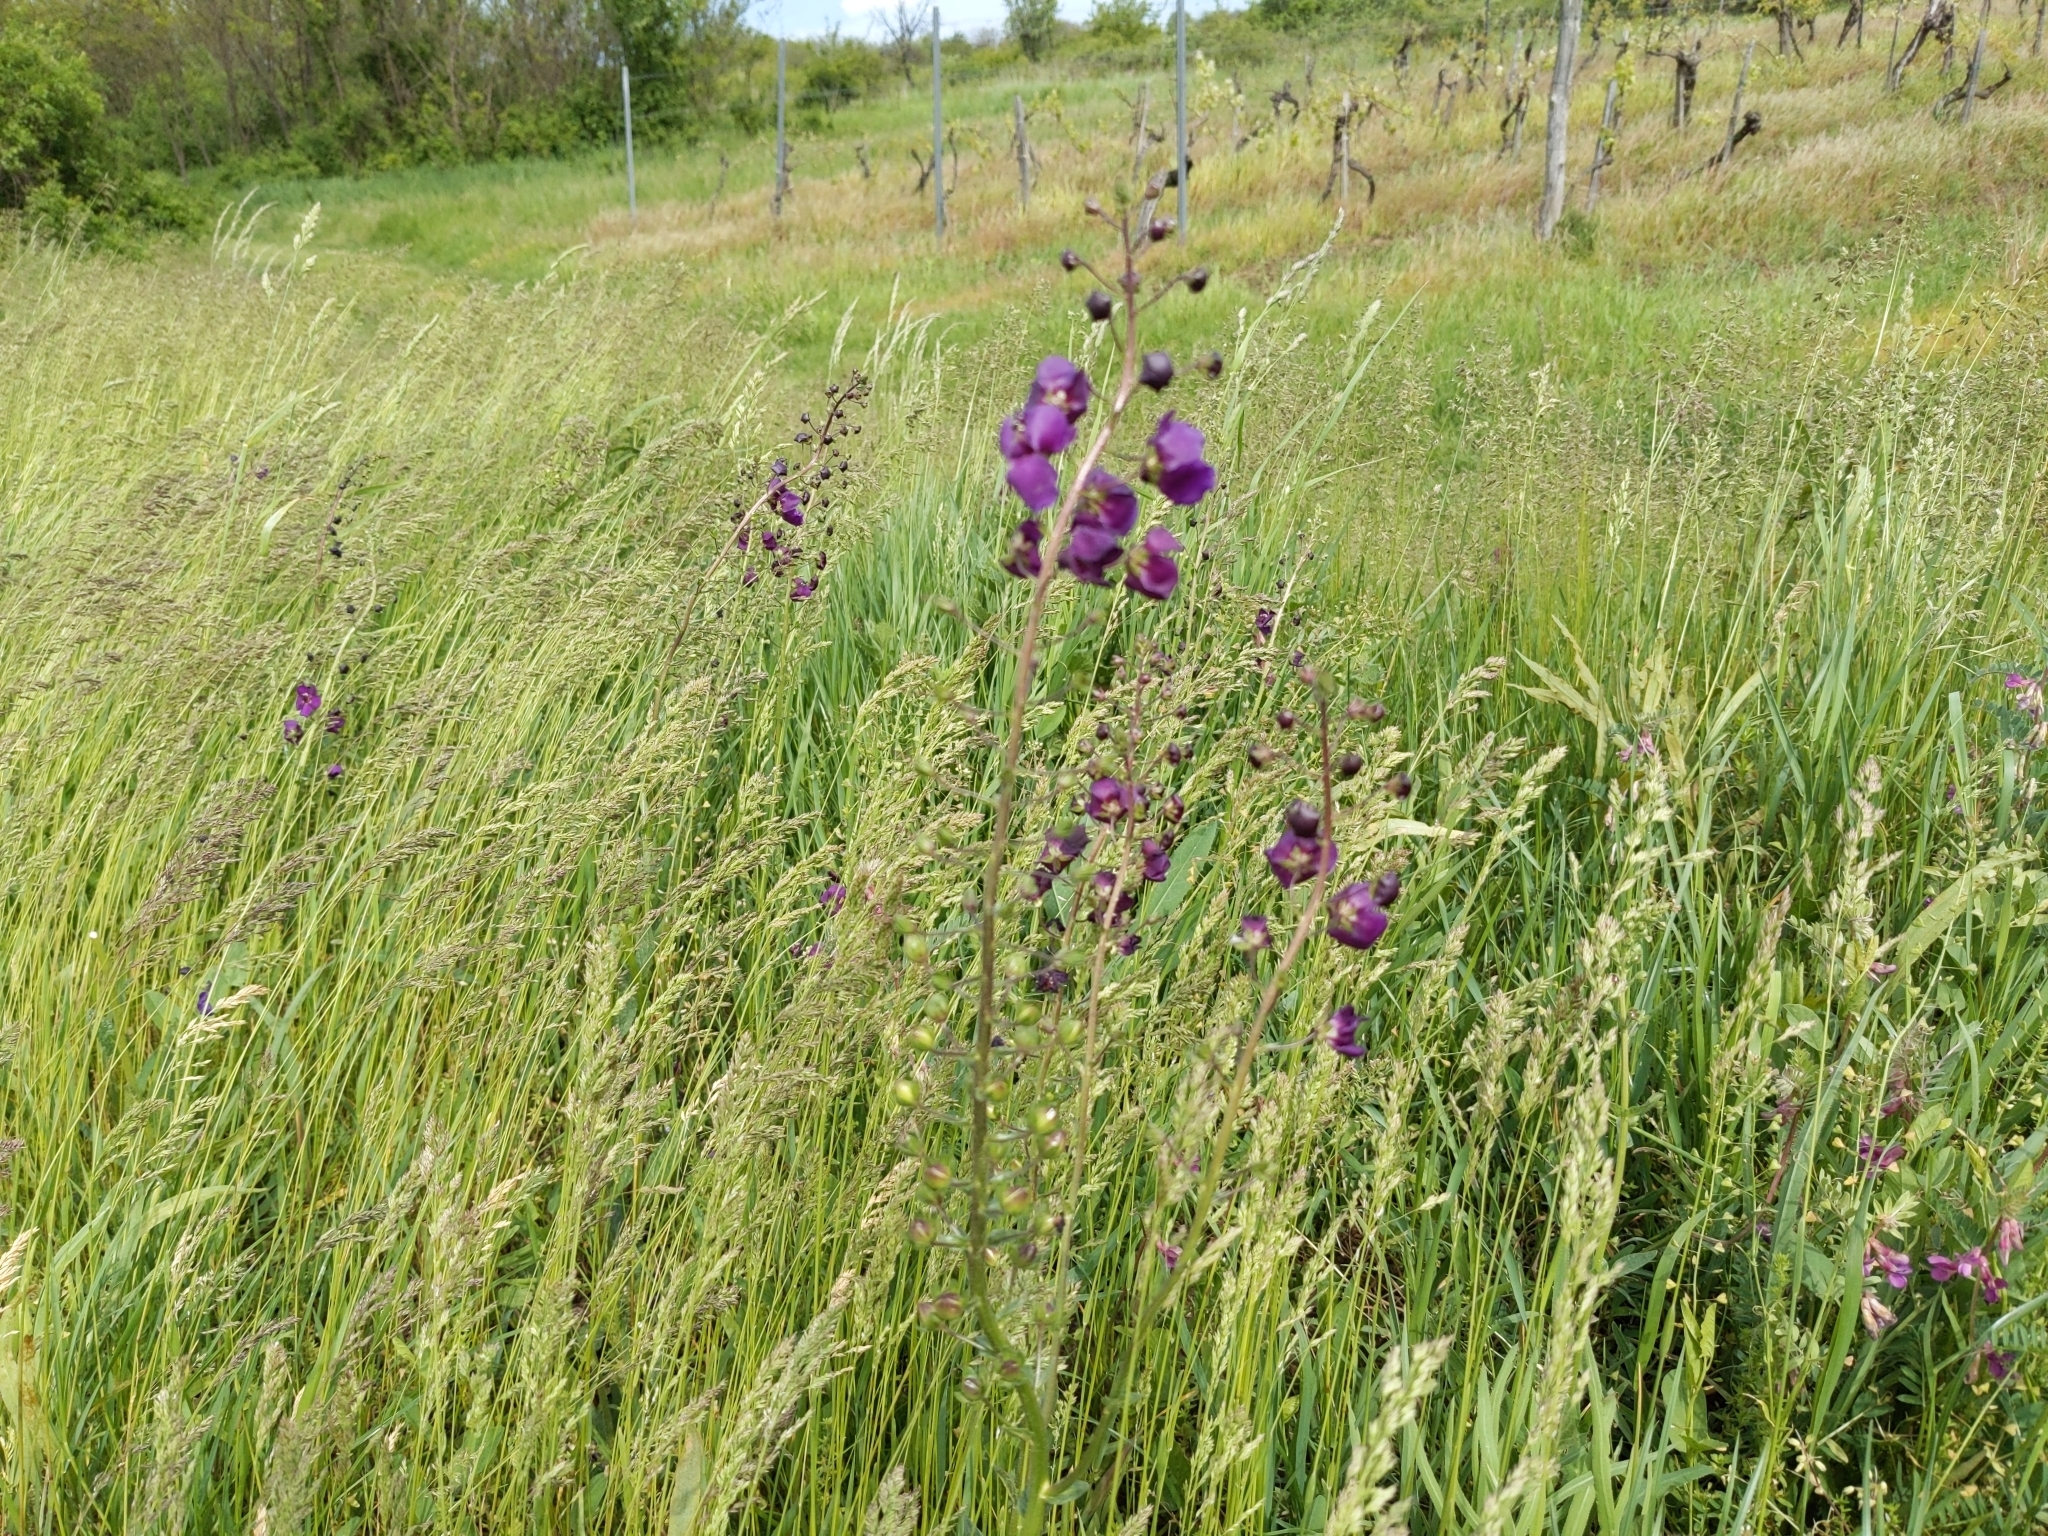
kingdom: Plantae
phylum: Tracheophyta
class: Magnoliopsida
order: Lamiales
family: Scrophulariaceae
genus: Verbascum
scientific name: Verbascum phoeniceum
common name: Purple mullein
